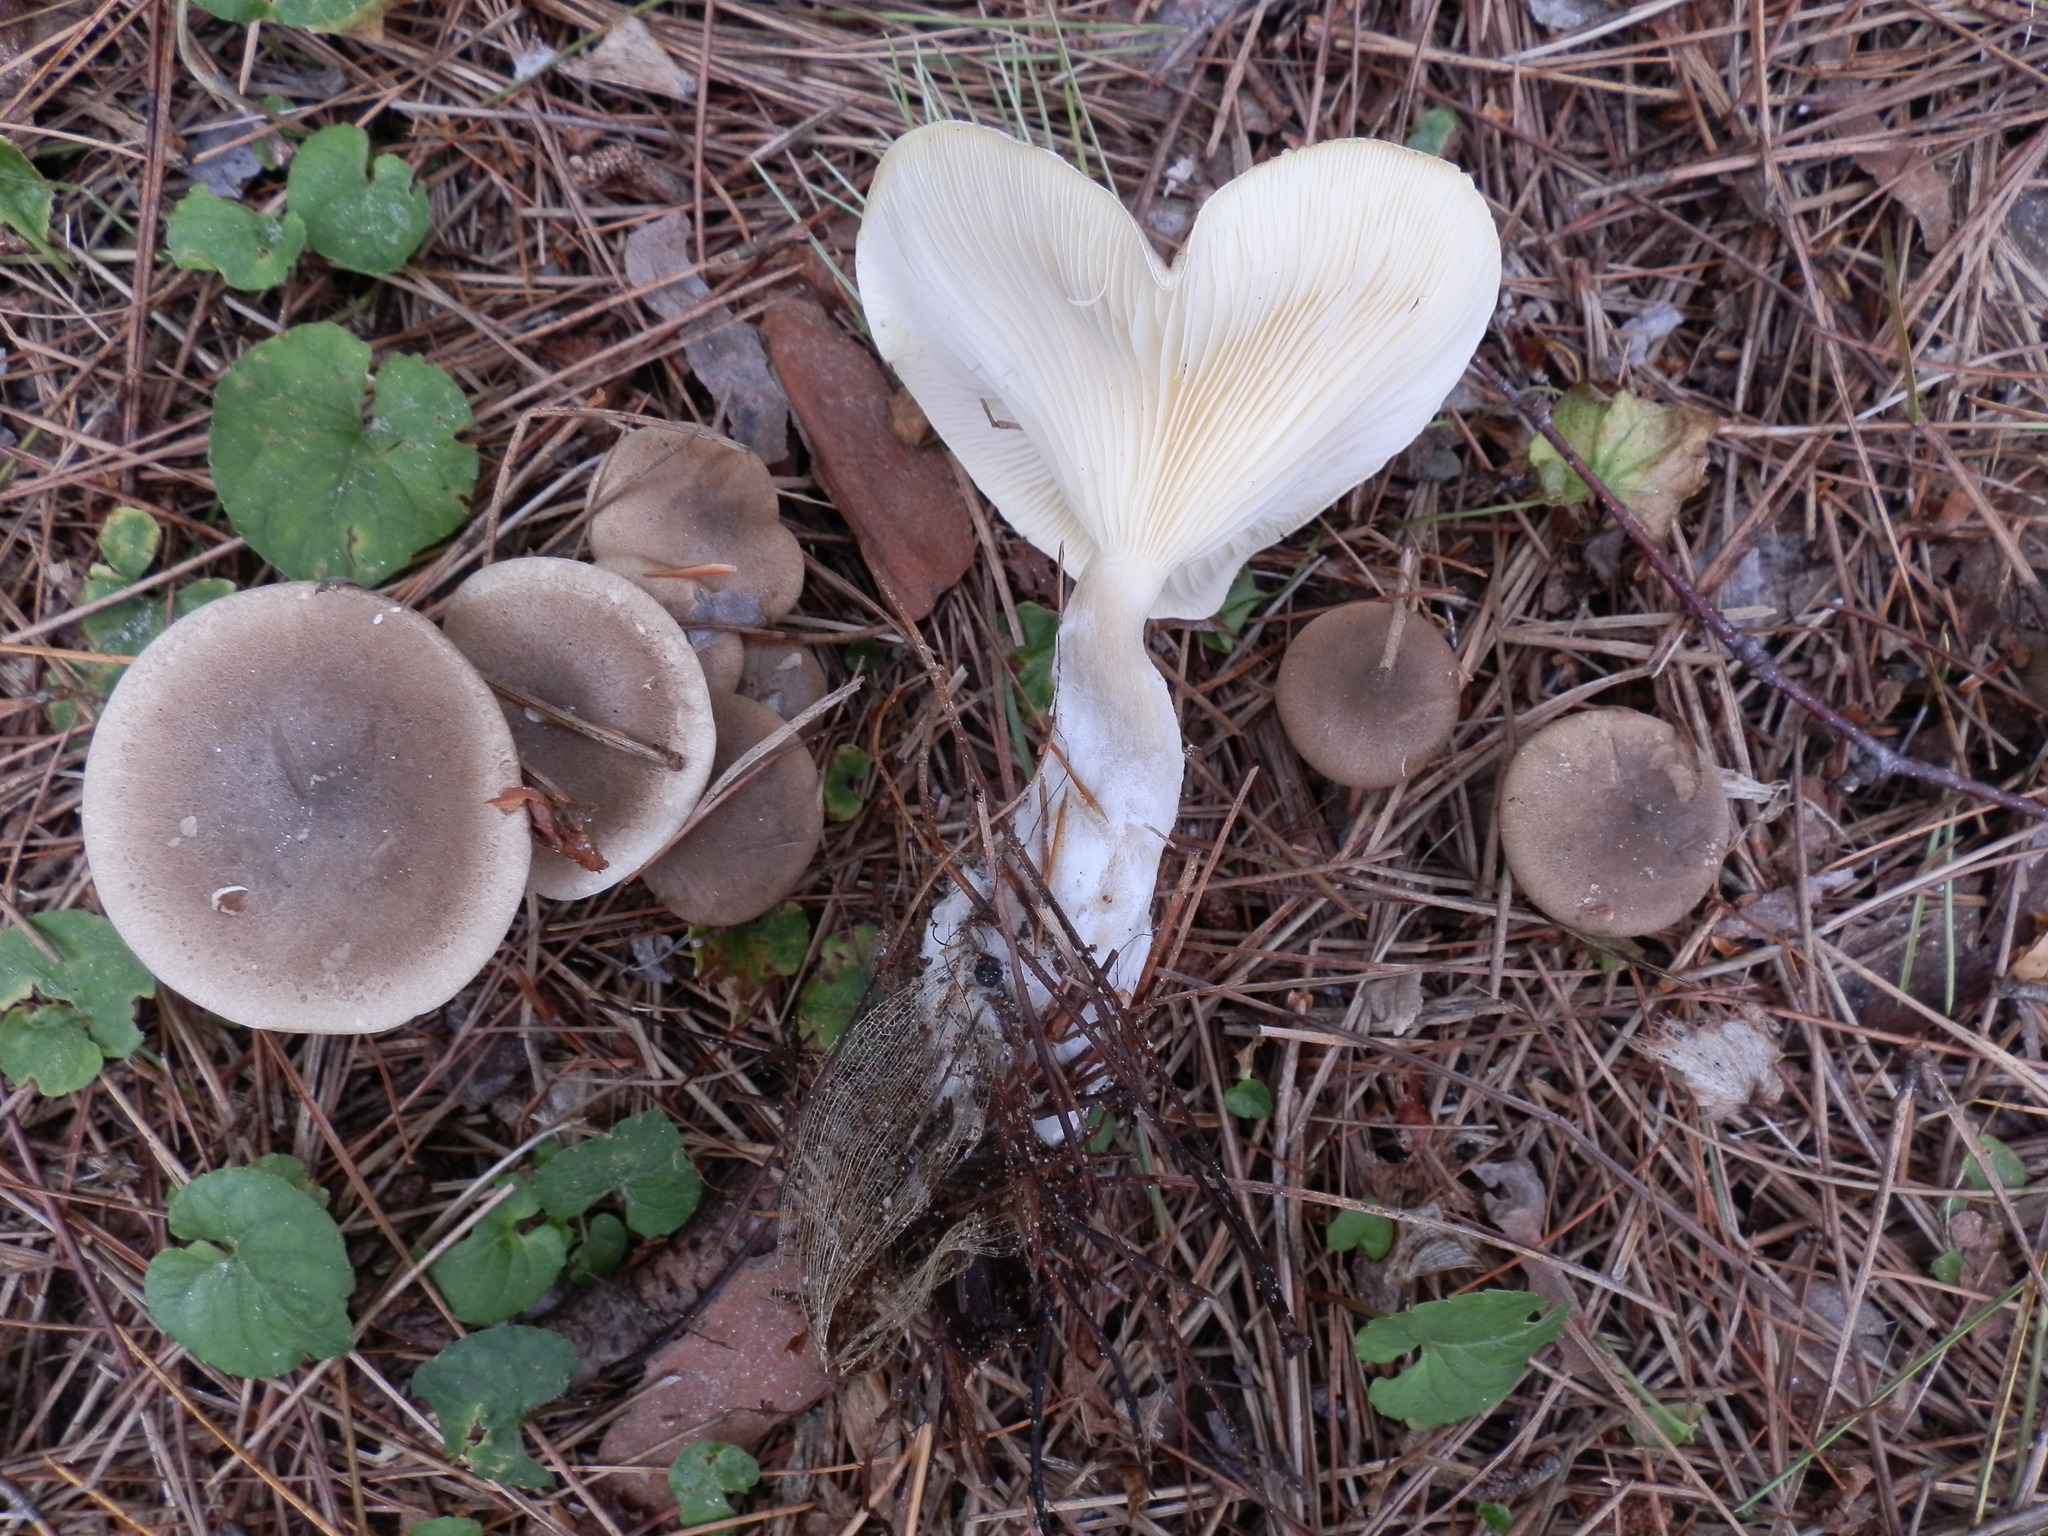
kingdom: Fungi
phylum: Basidiomycota
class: Agaricomycetes
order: Agaricales
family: Hygrophoraceae
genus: Ampulloclitocybe
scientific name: Ampulloclitocybe clavipes
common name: Club foot
